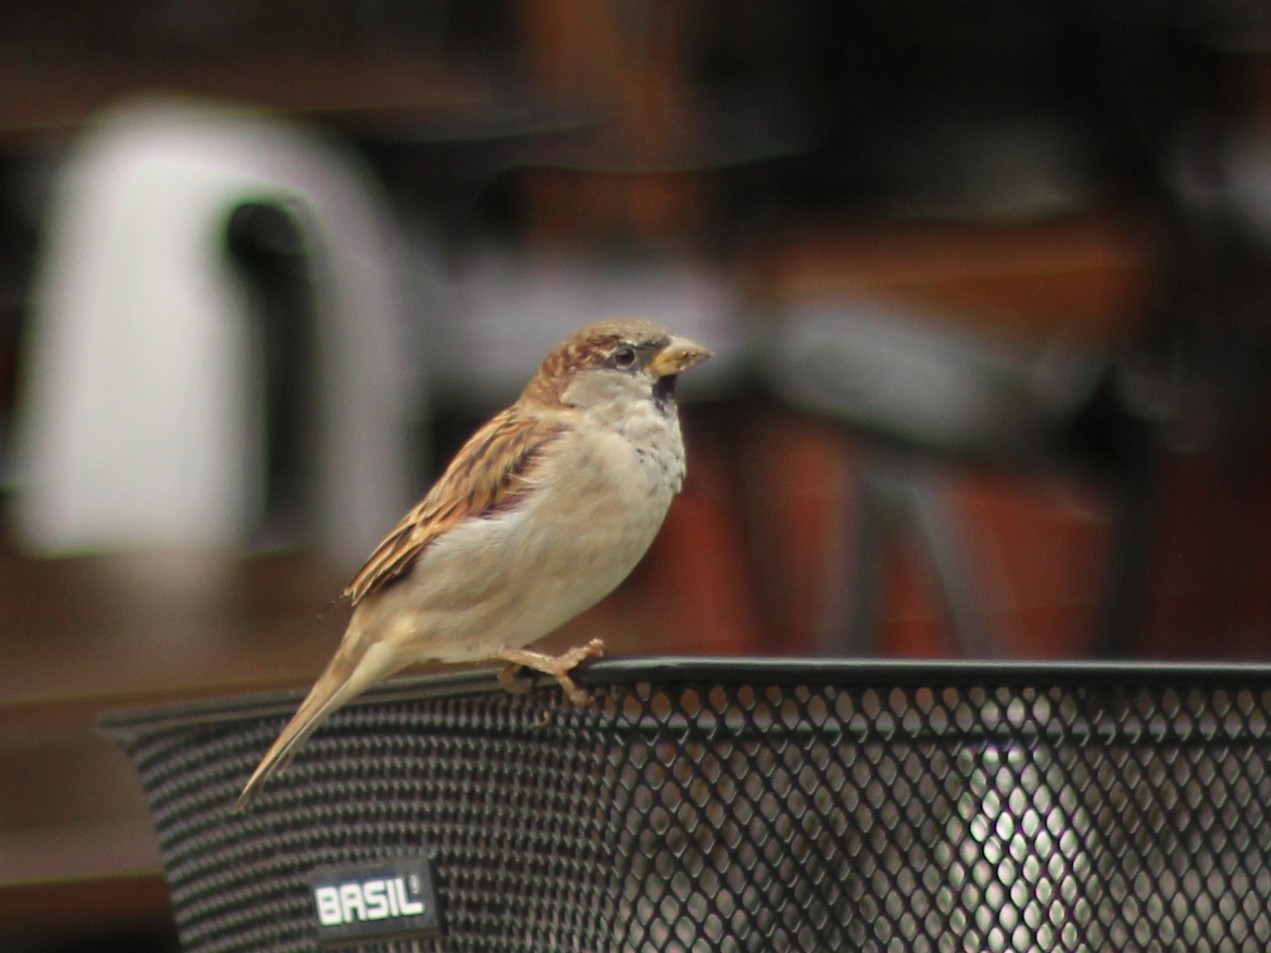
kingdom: Animalia
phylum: Chordata
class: Aves
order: Passeriformes
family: Passeridae
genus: Passer
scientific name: Passer domesticus
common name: House sparrow
